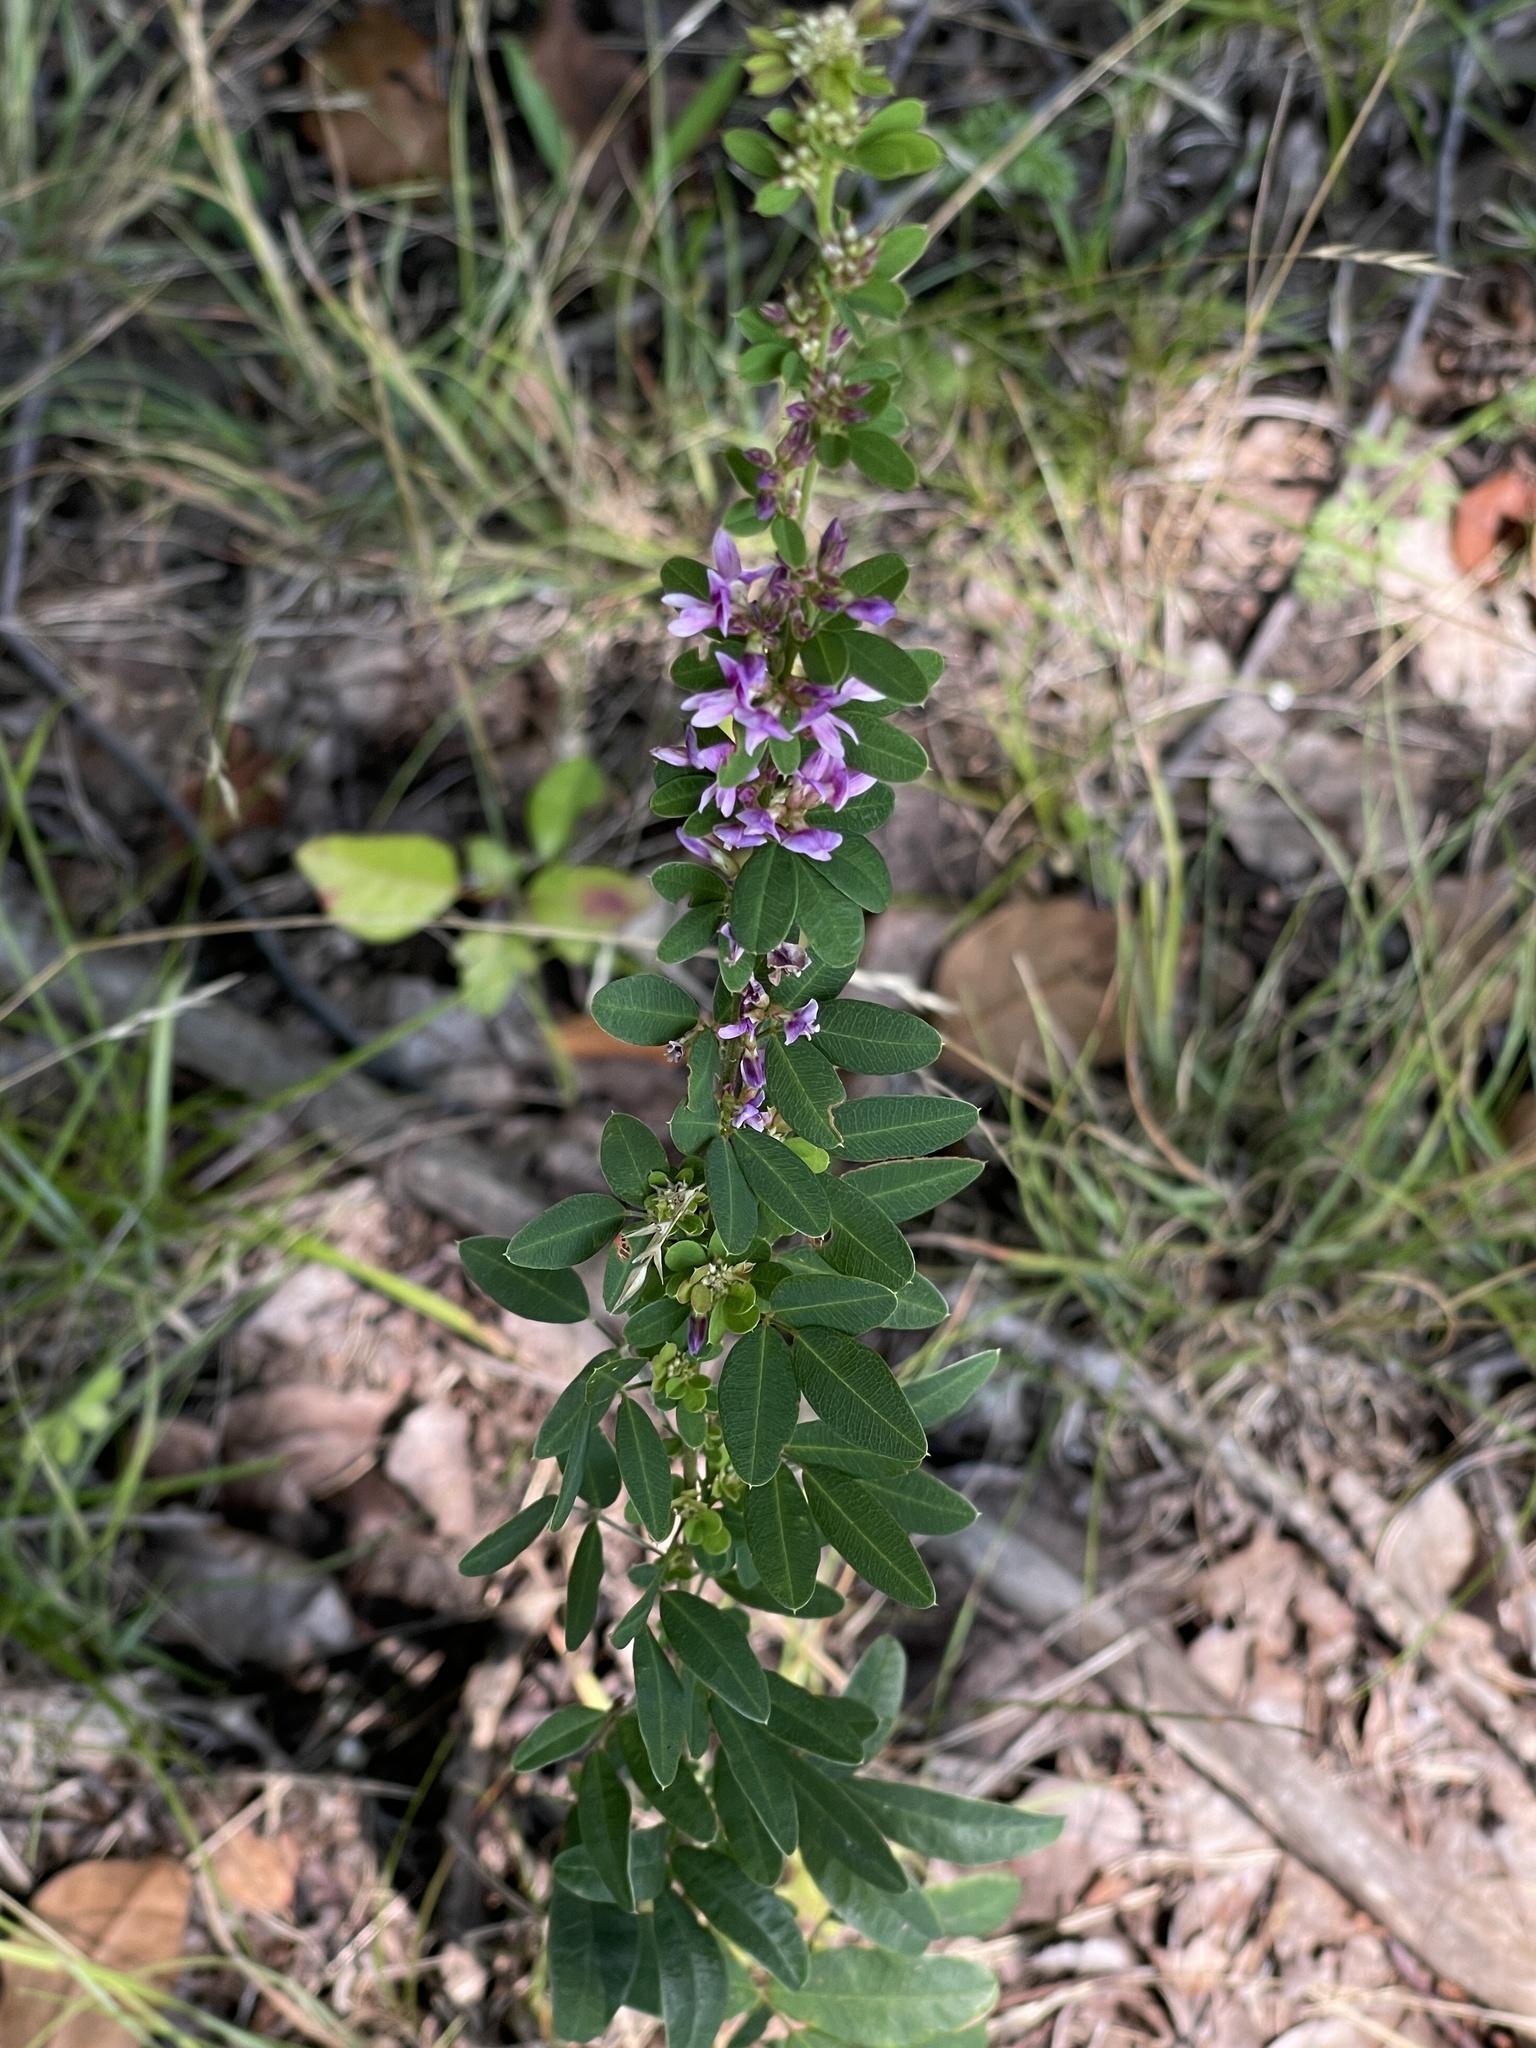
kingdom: Plantae
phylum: Tracheophyta
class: Magnoliopsida
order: Fabales
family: Fabaceae
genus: Lespedeza
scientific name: Lespedeza violacea
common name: Wand bush-clover
